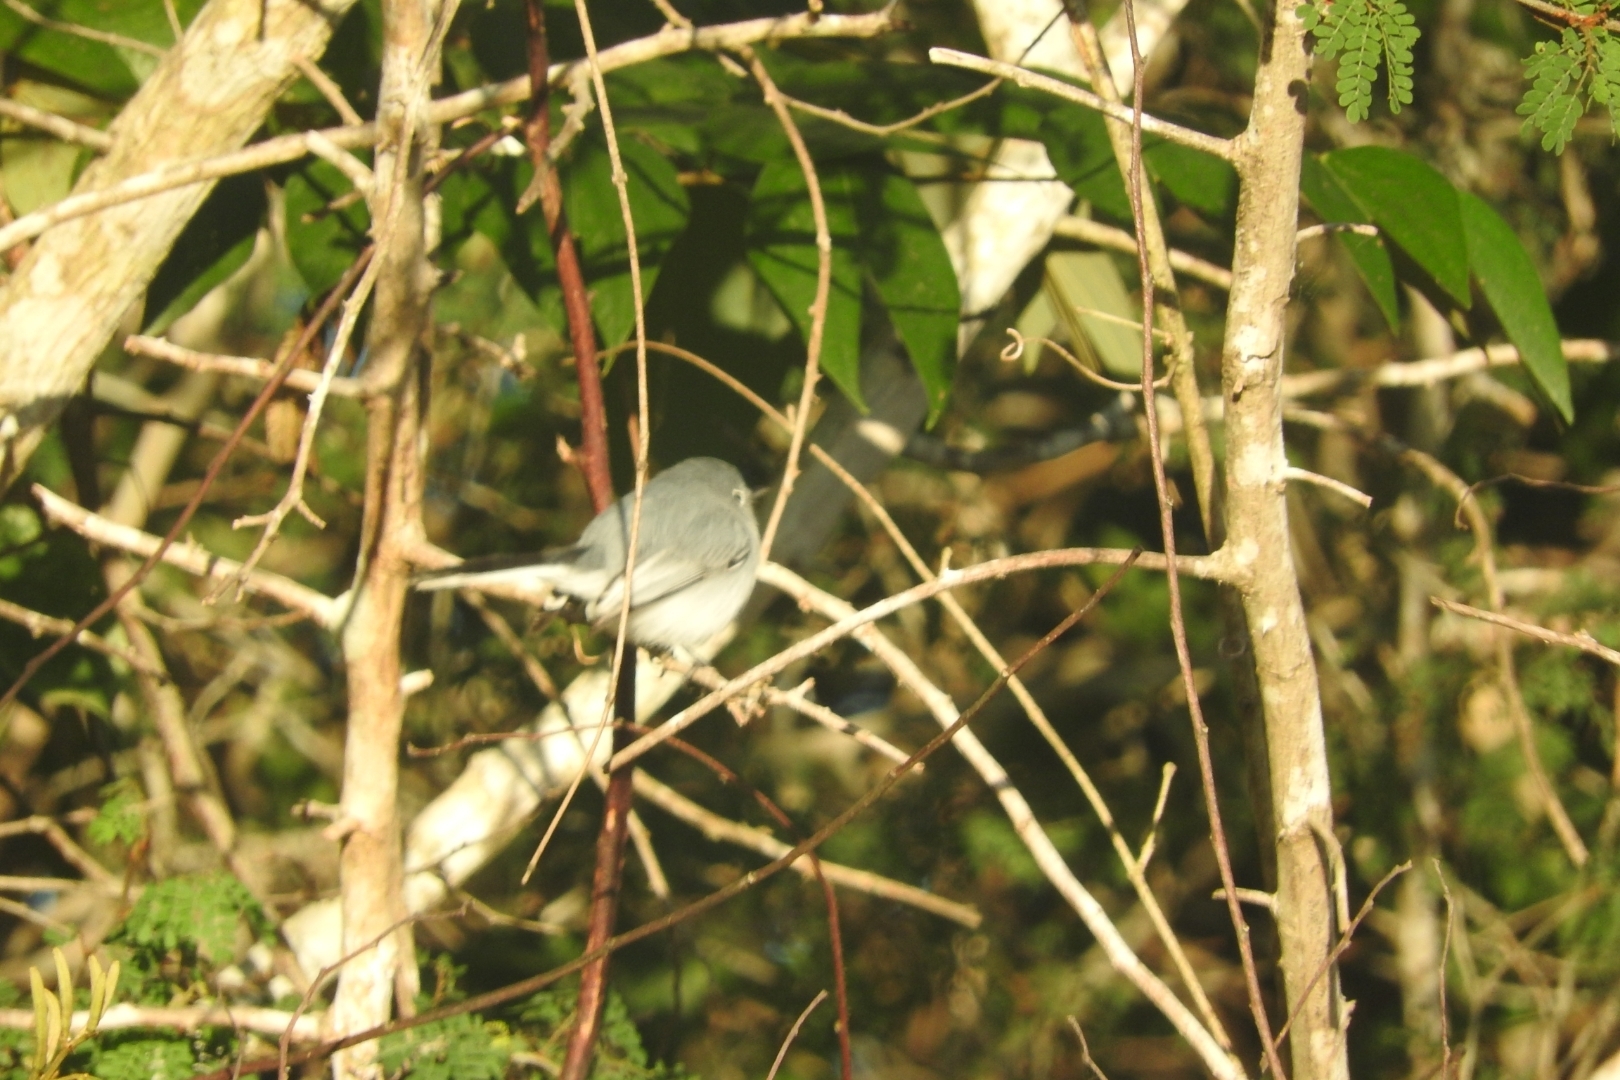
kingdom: Animalia
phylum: Chordata
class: Aves
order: Passeriformes
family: Polioptilidae
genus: Polioptila
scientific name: Polioptila caerulea
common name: Blue-gray gnatcatcher
